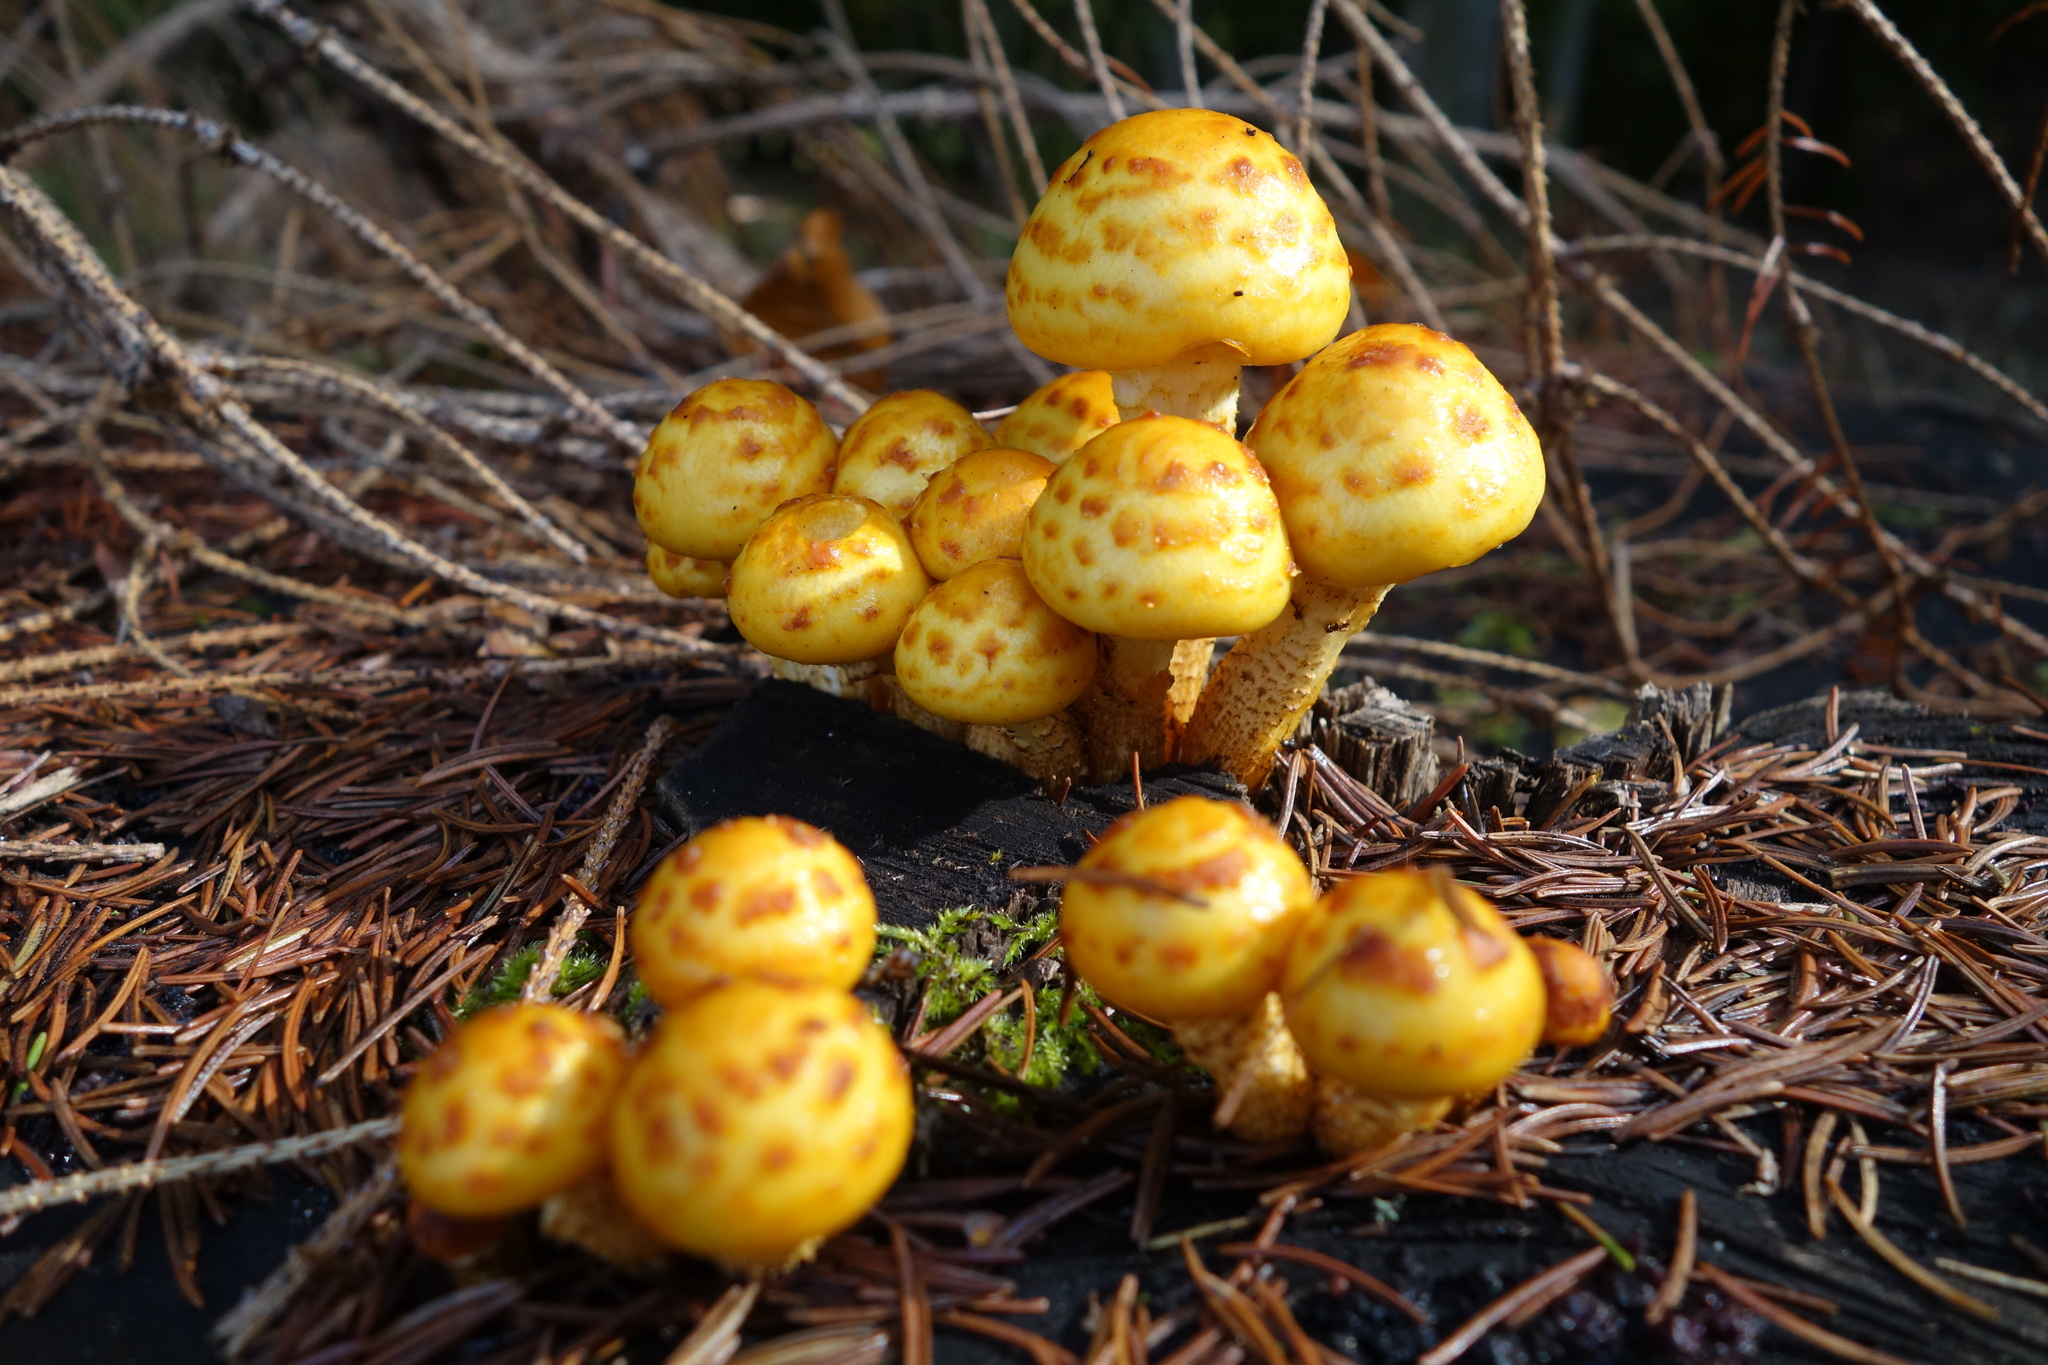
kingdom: Fungi
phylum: Basidiomycota
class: Agaricomycetes
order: Agaricales
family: Strophariaceae
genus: Pholiota
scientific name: Pholiota aurivella
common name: Golden scalycap
